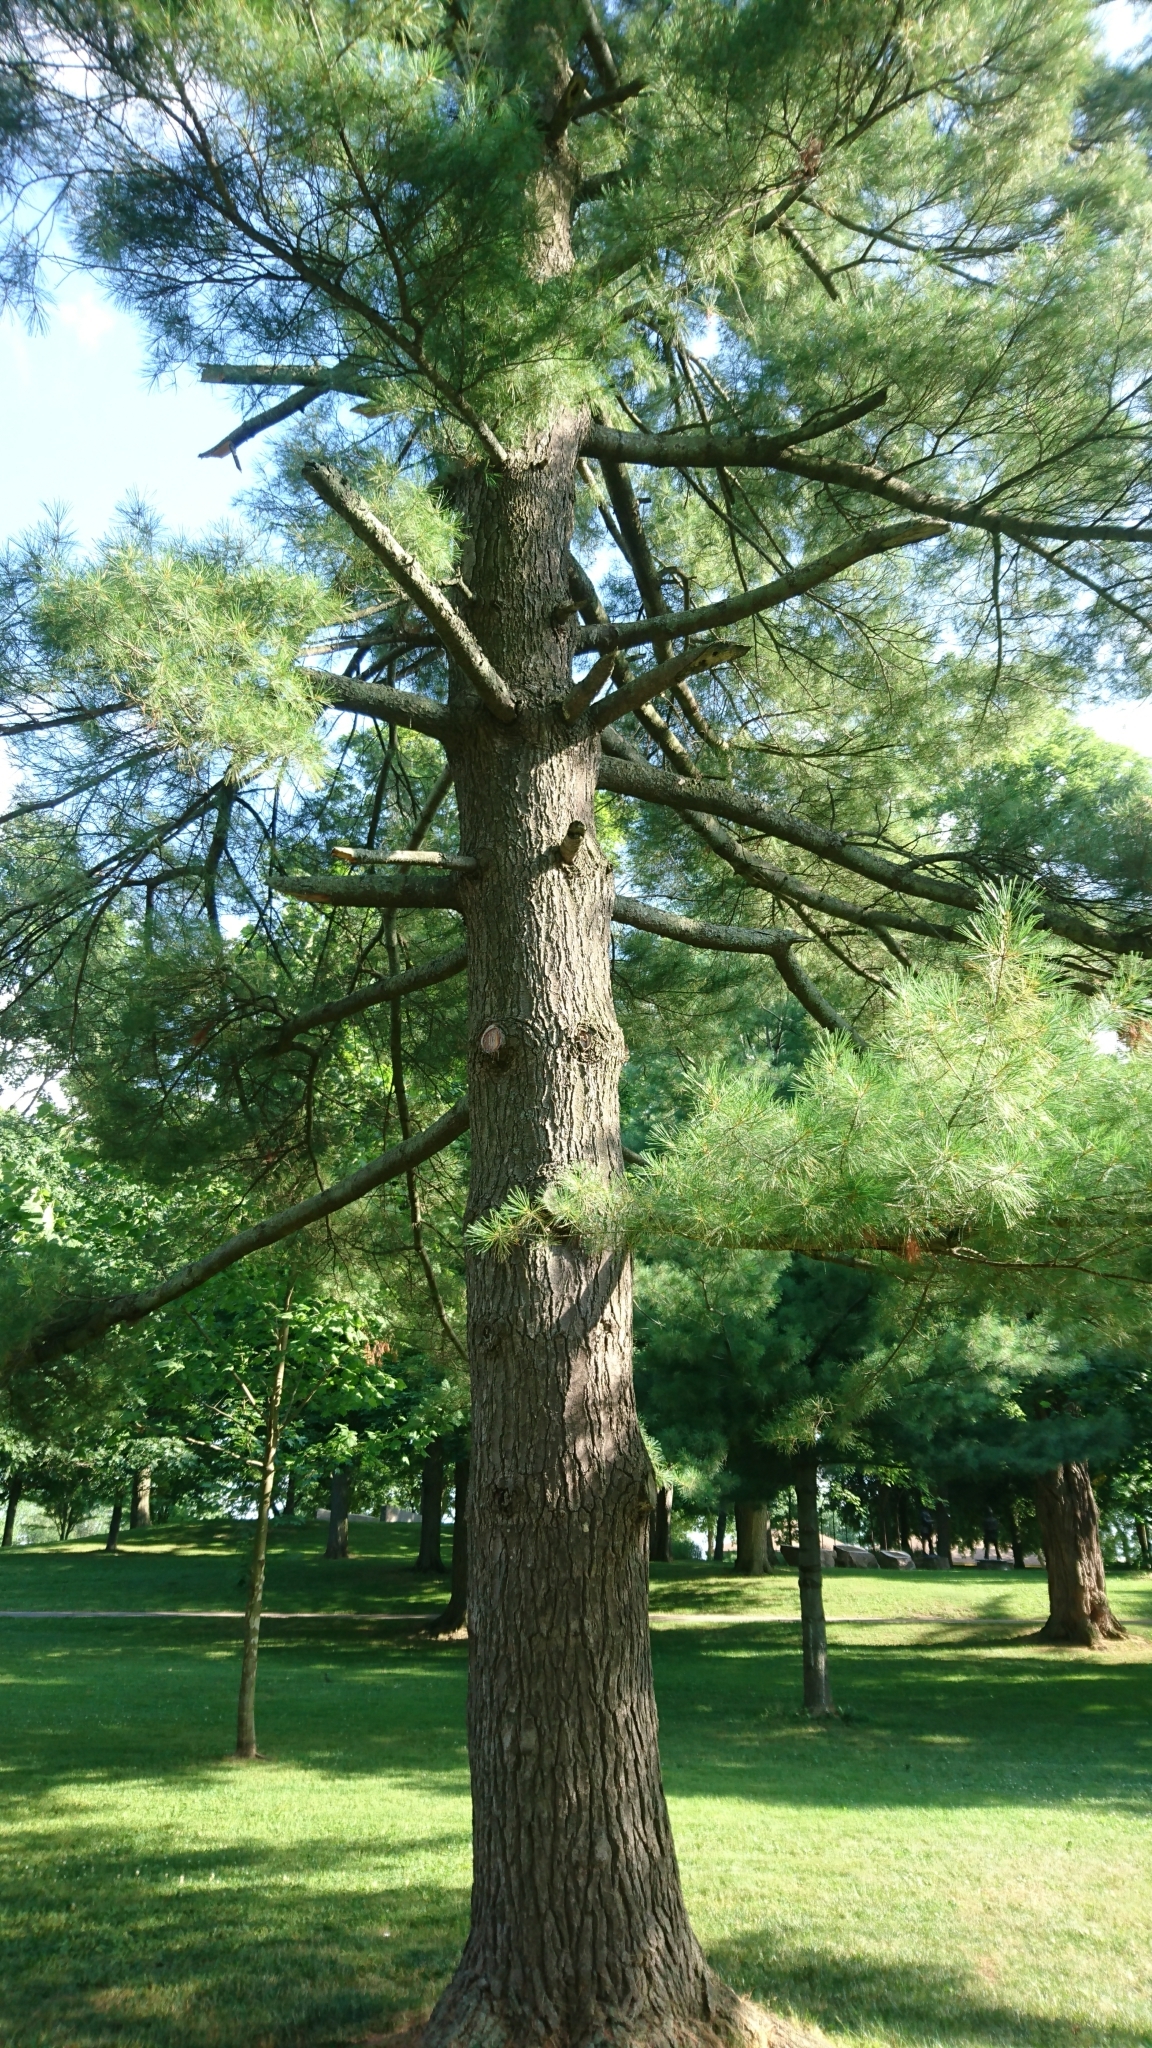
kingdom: Plantae
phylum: Tracheophyta
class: Pinopsida
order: Pinales
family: Pinaceae
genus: Pinus
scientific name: Pinus strobus
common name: Weymouth pine
